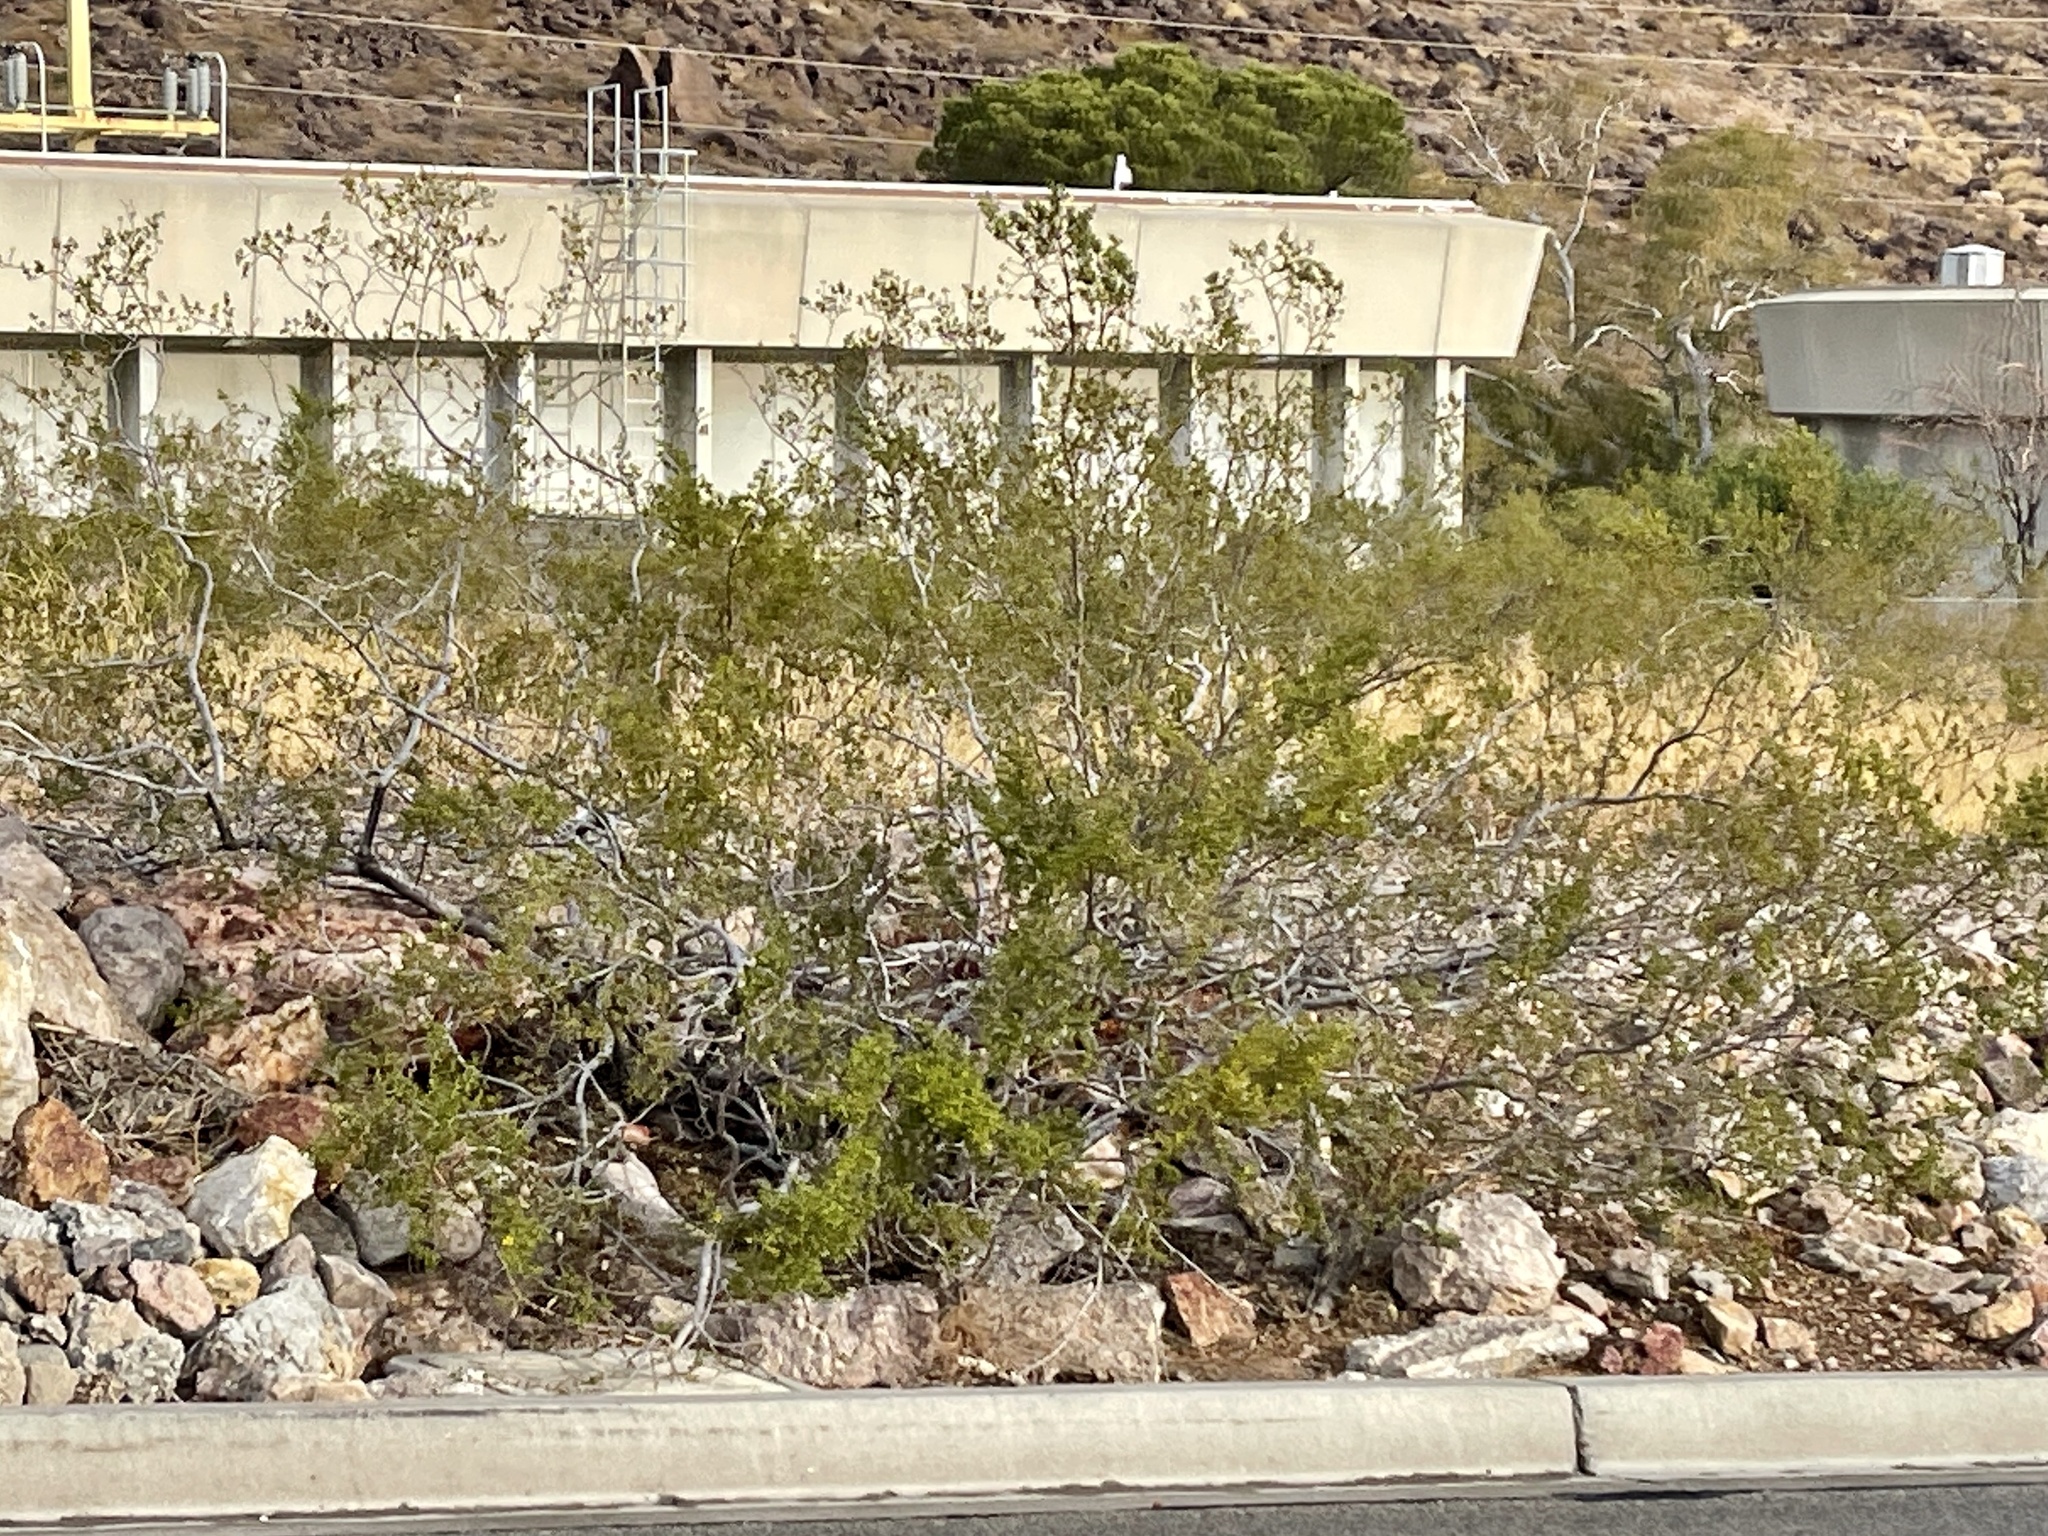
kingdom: Plantae
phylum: Tracheophyta
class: Magnoliopsida
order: Zygophyllales
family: Zygophyllaceae
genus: Larrea
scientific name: Larrea tridentata
